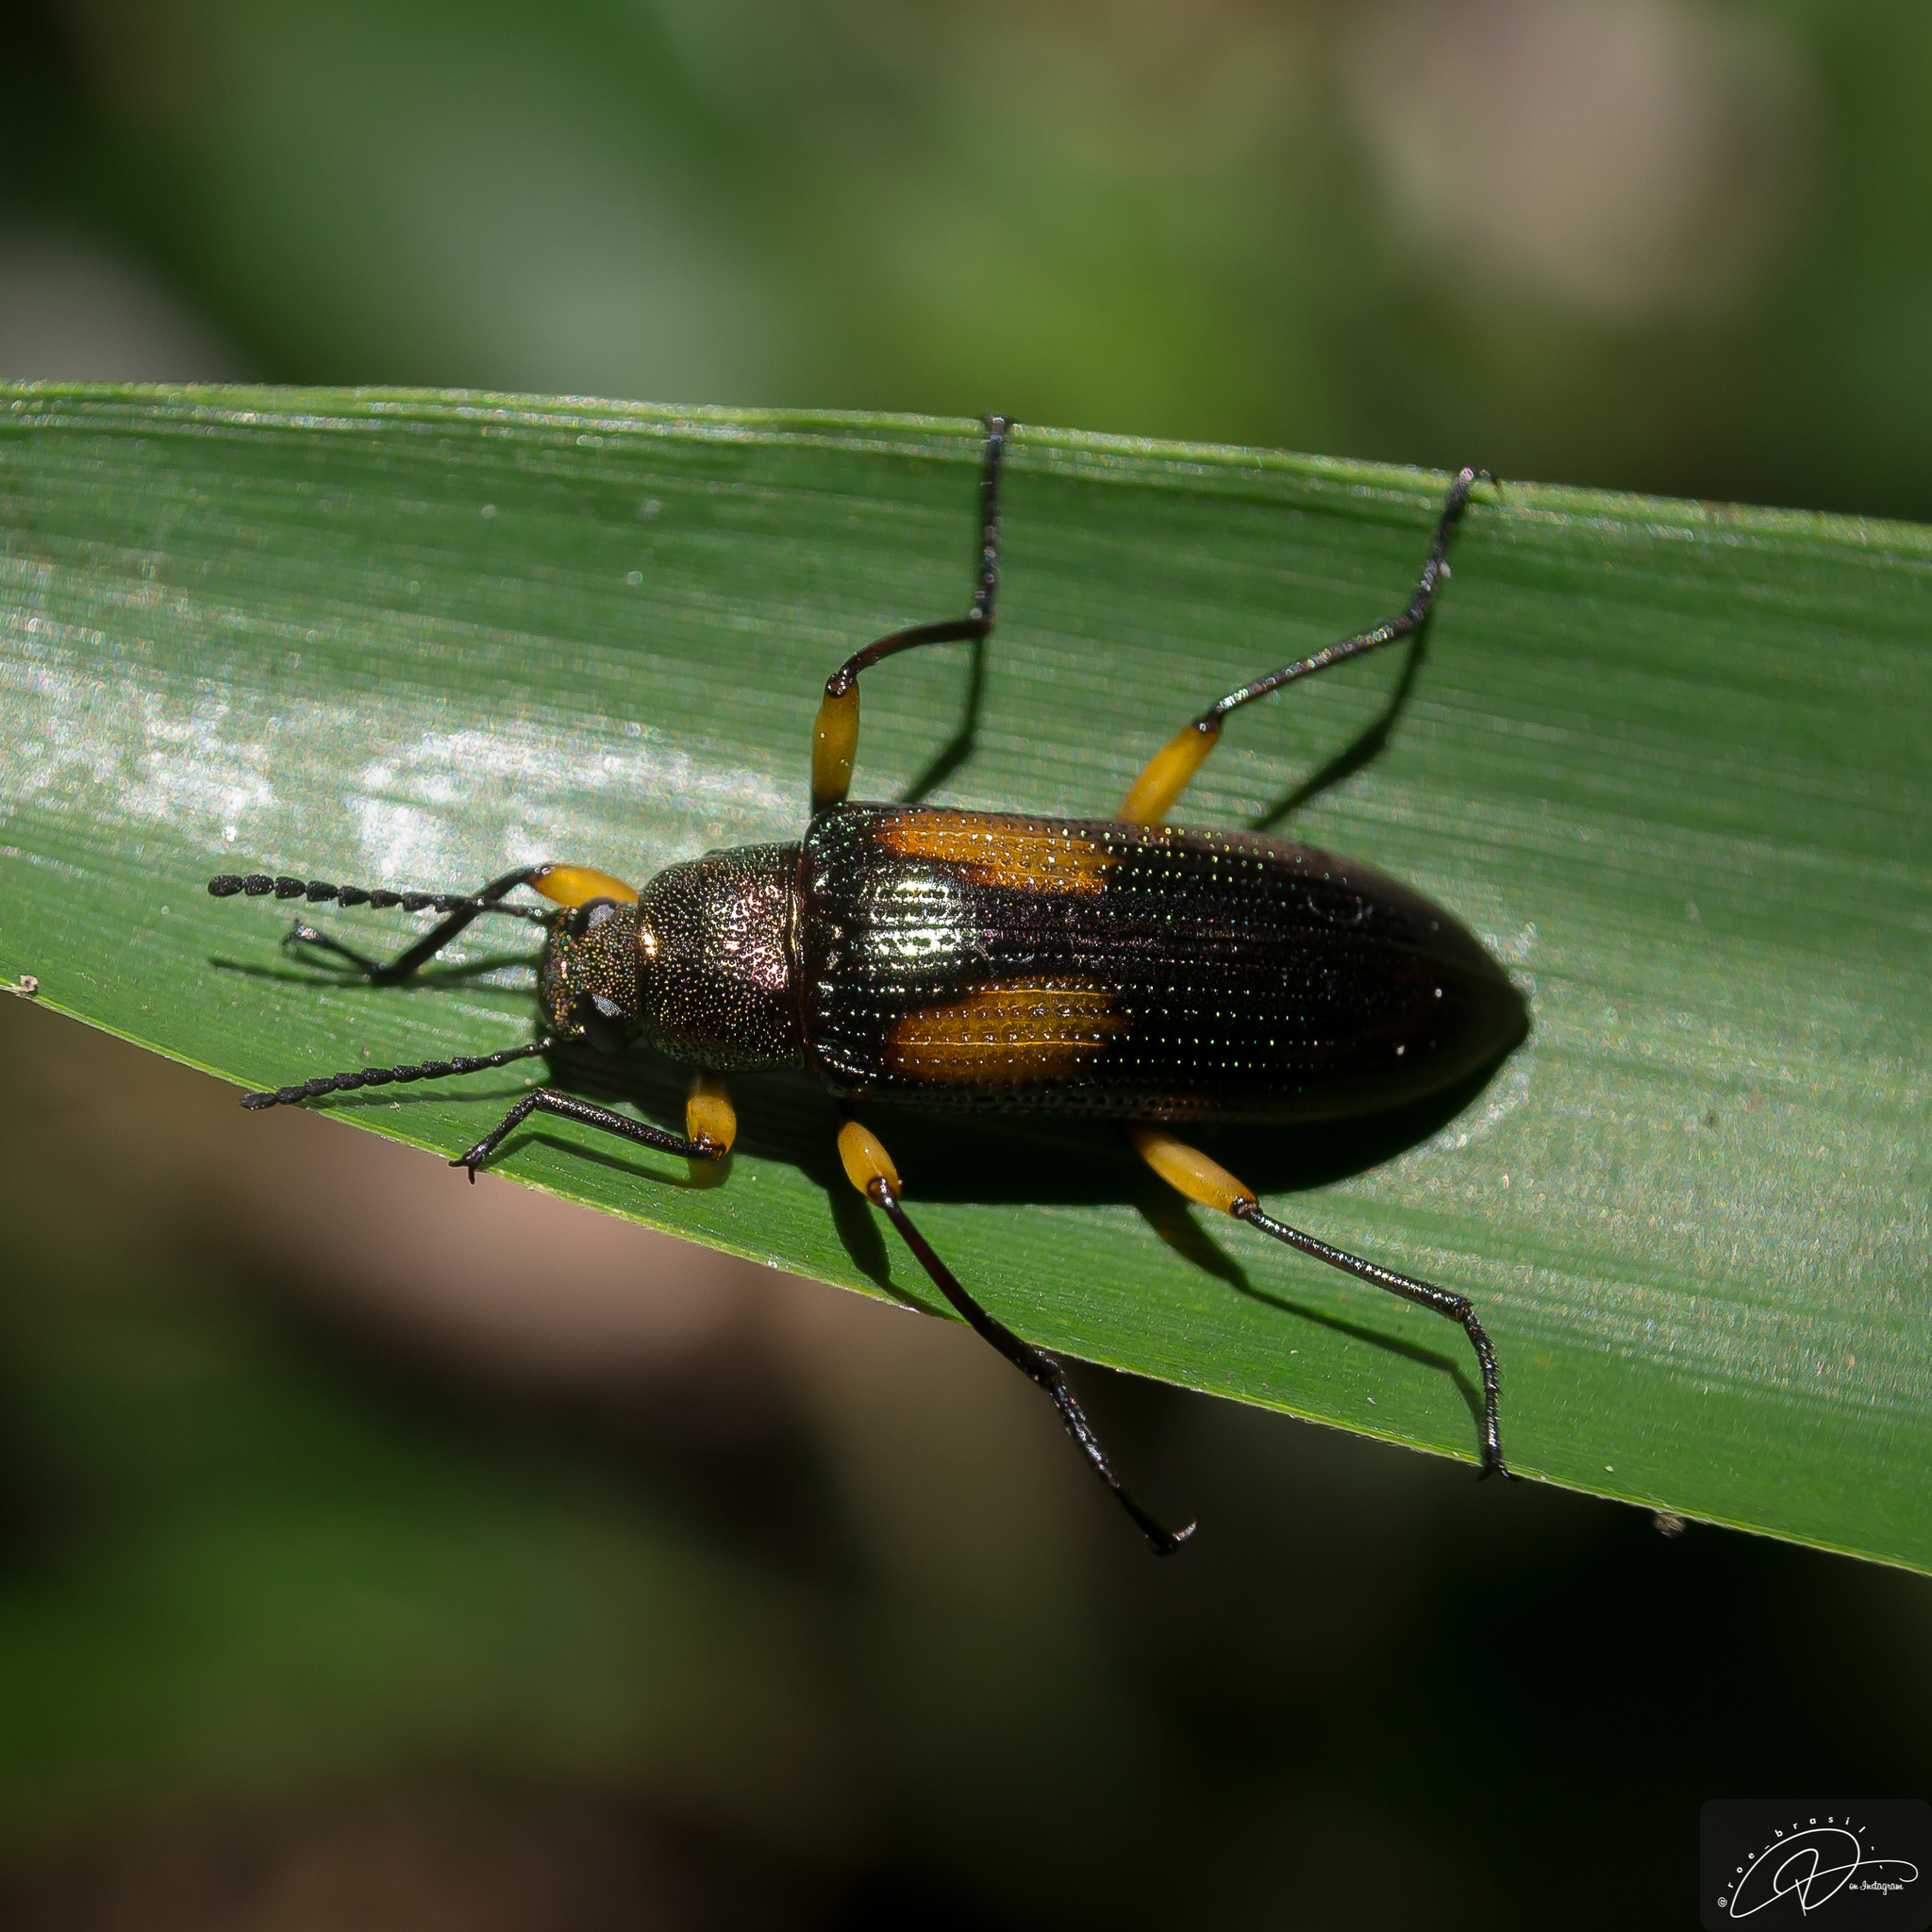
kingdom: Animalia
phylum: Arthropoda
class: Insecta
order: Coleoptera
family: Tenebrionidae
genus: Strongylium
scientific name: Strongylium
